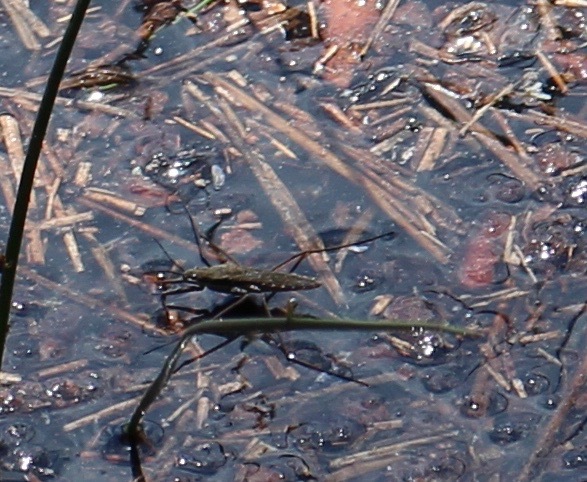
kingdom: Animalia
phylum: Arthropoda
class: Insecta
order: Hemiptera
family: Gerridae
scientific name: Gerridae
